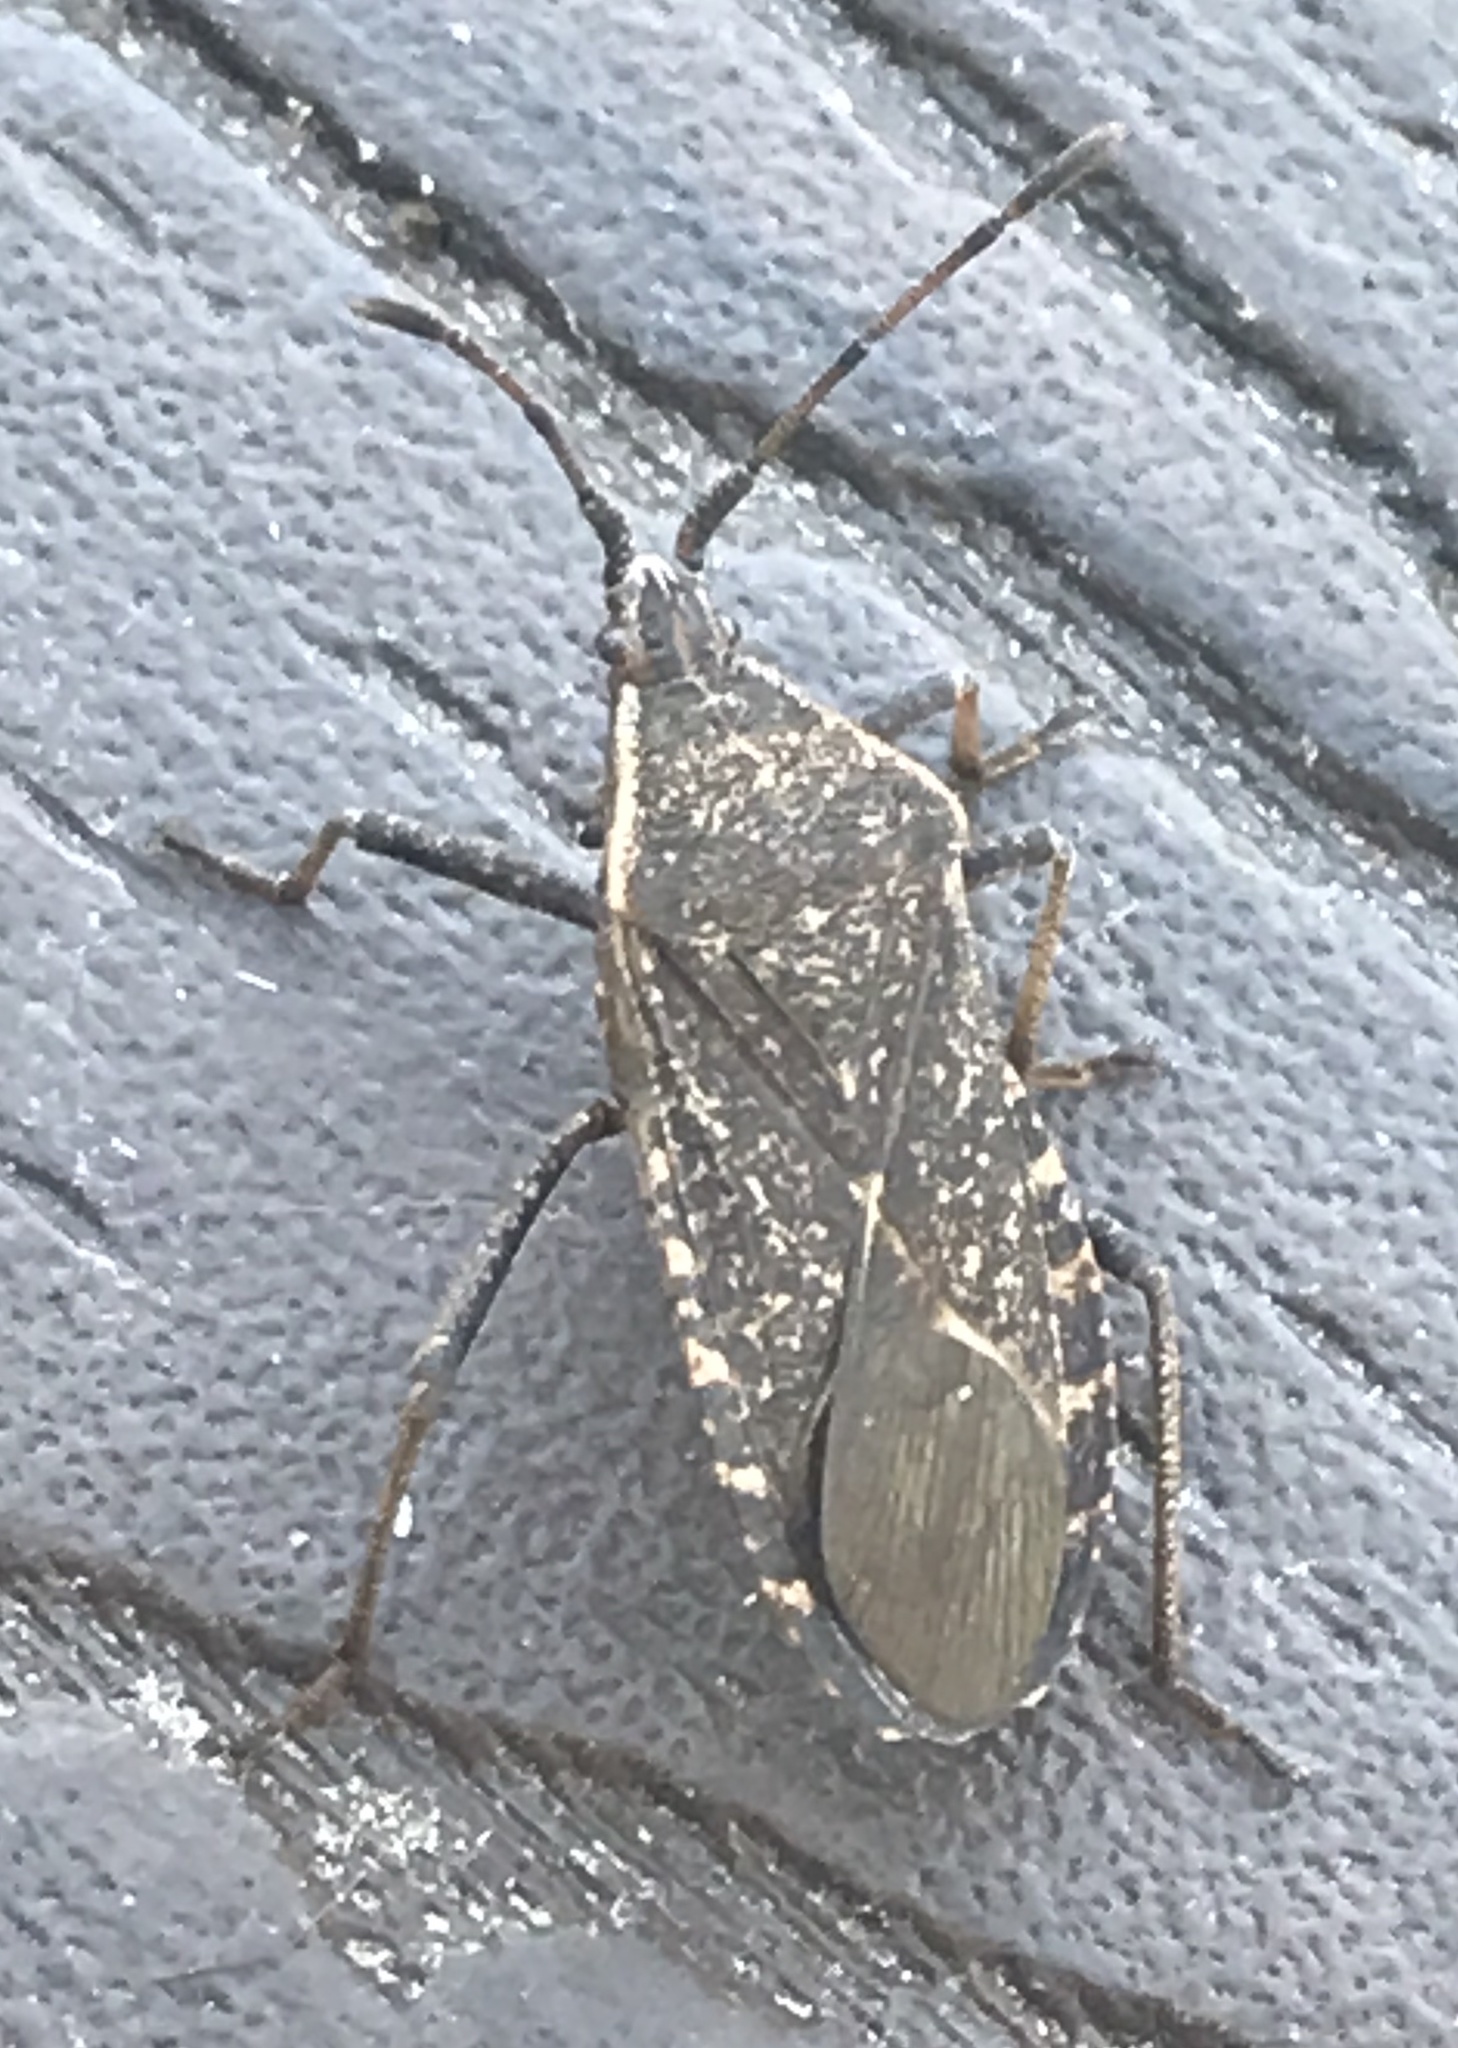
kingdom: Animalia
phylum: Arthropoda
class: Insecta
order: Hemiptera
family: Coreidae
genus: Anasa
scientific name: Anasa tristis
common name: Squash bug
